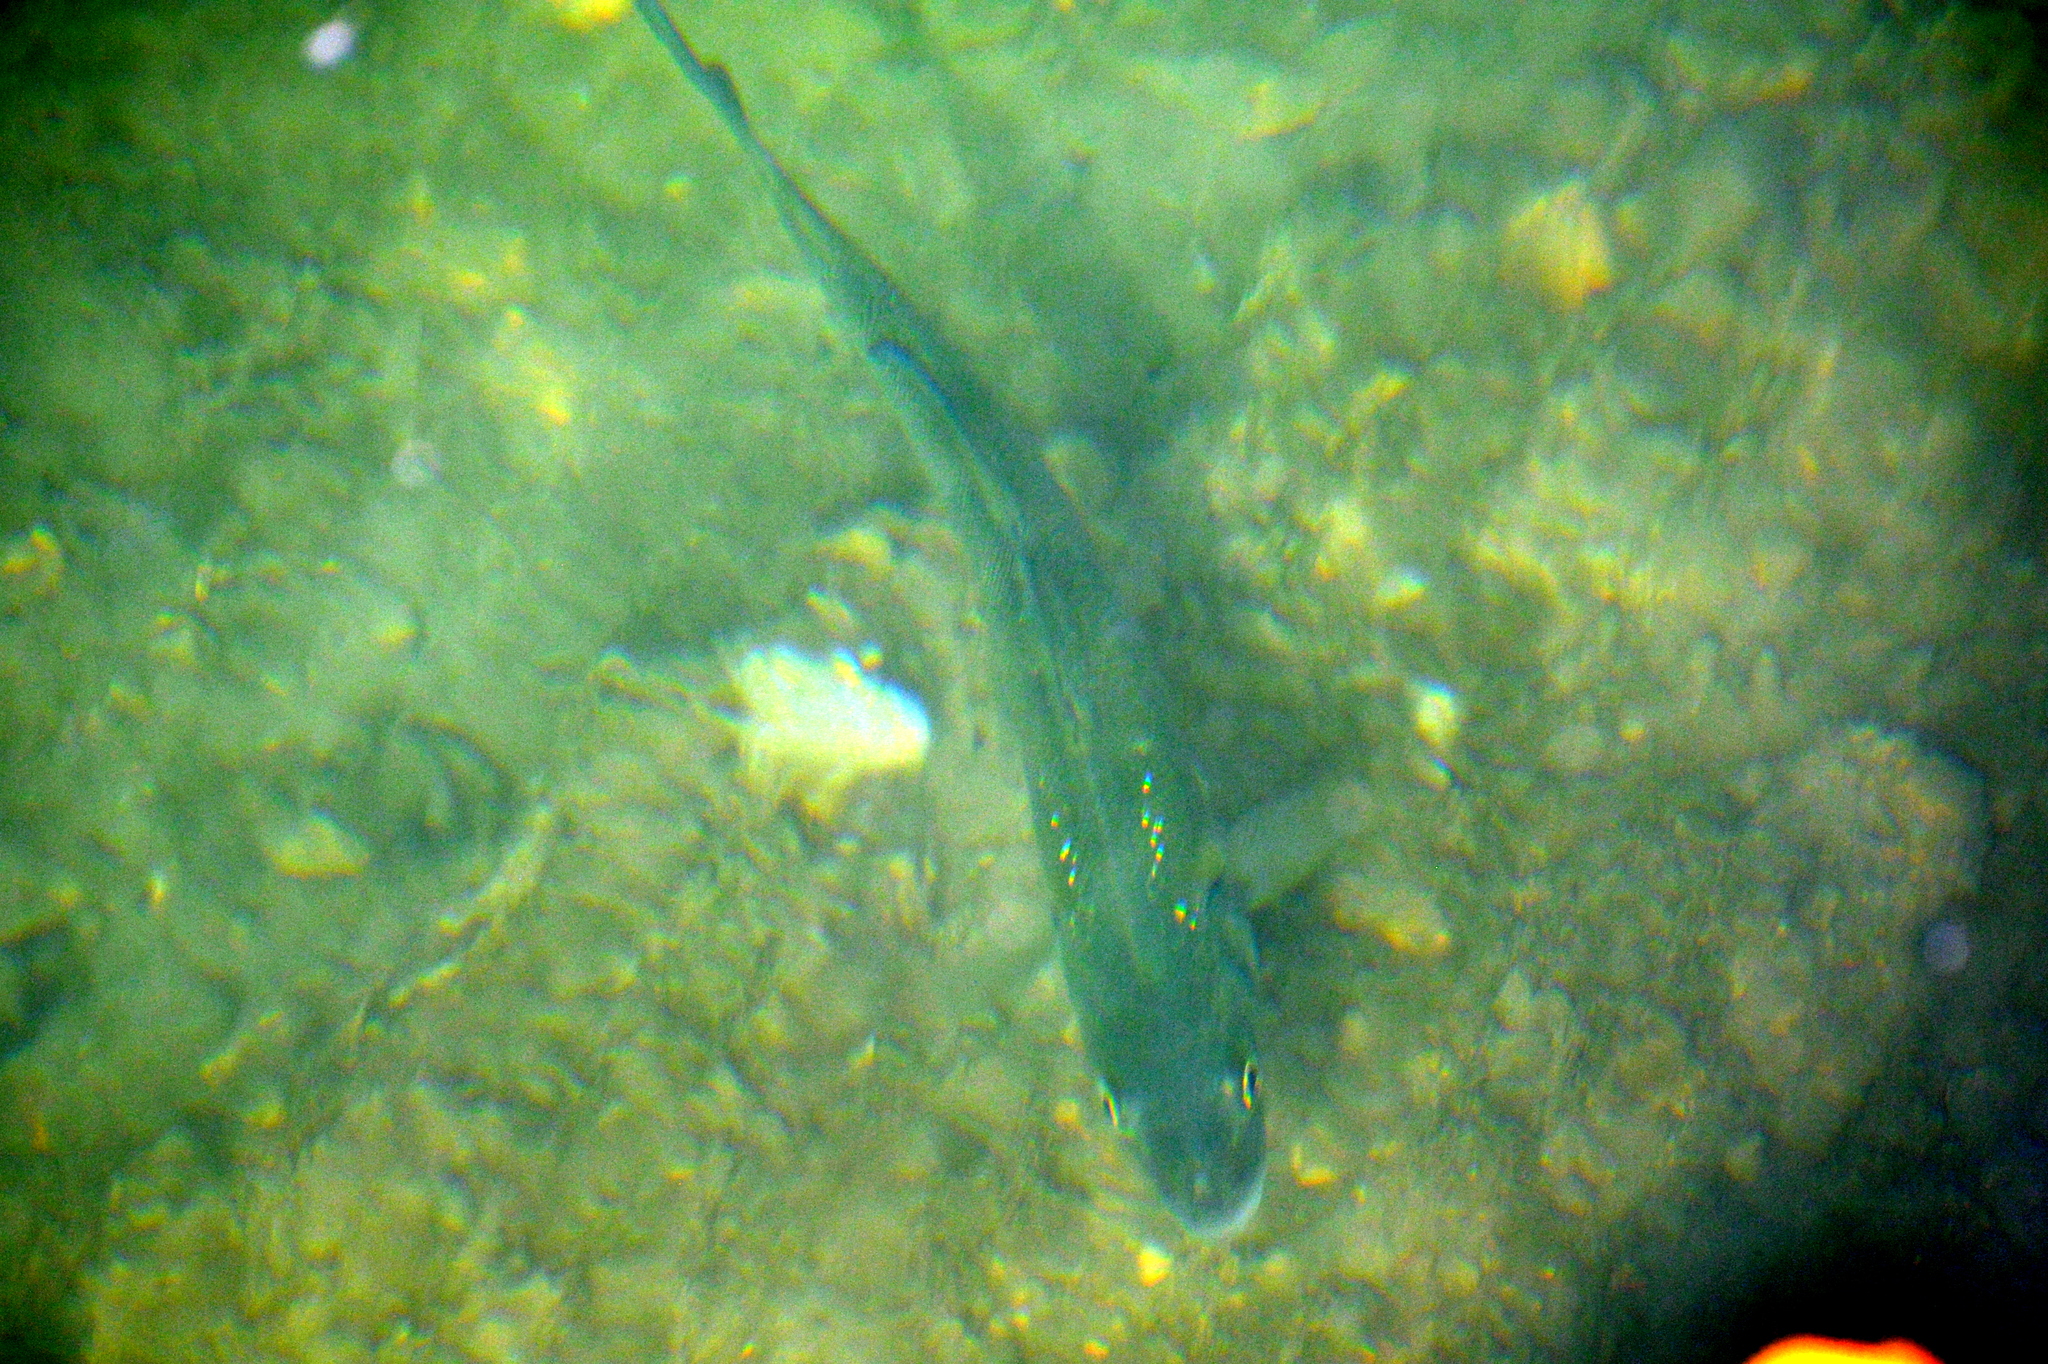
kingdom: Animalia
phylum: Chordata
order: Perciformes
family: Moronidae
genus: Dicentrarchus
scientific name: Dicentrarchus labrax
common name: European seabass
